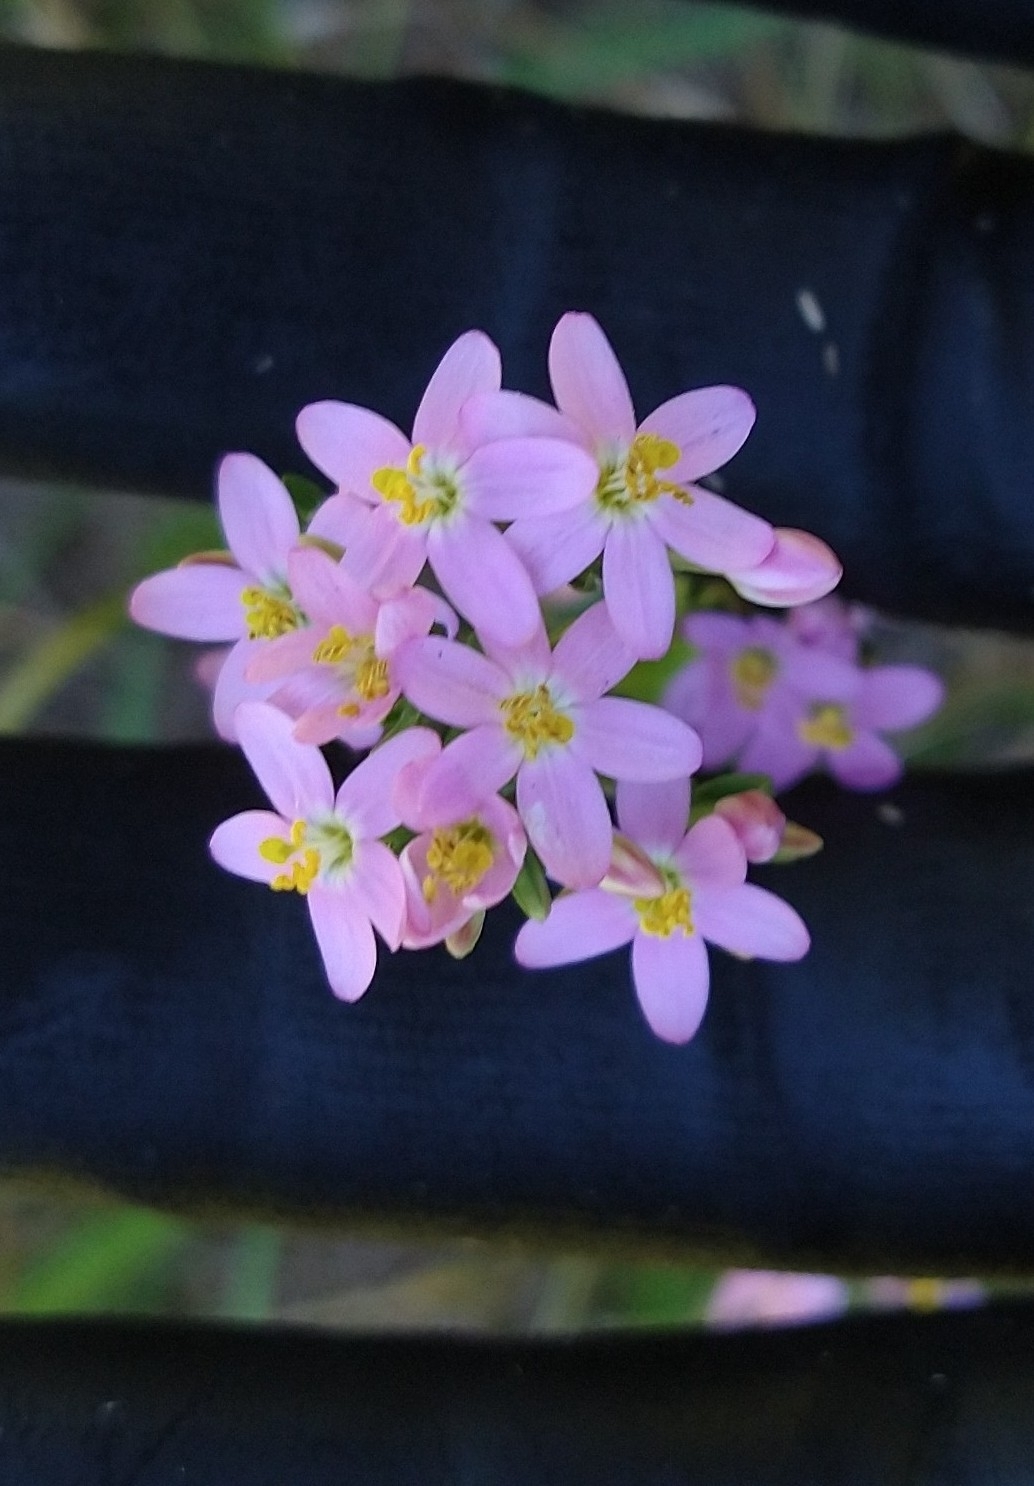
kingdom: Plantae
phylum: Tracheophyta
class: Magnoliopsida
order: Gentianales
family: Gentianaceae
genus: Centaurium
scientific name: Centaurium erythraea
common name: Common centaury
